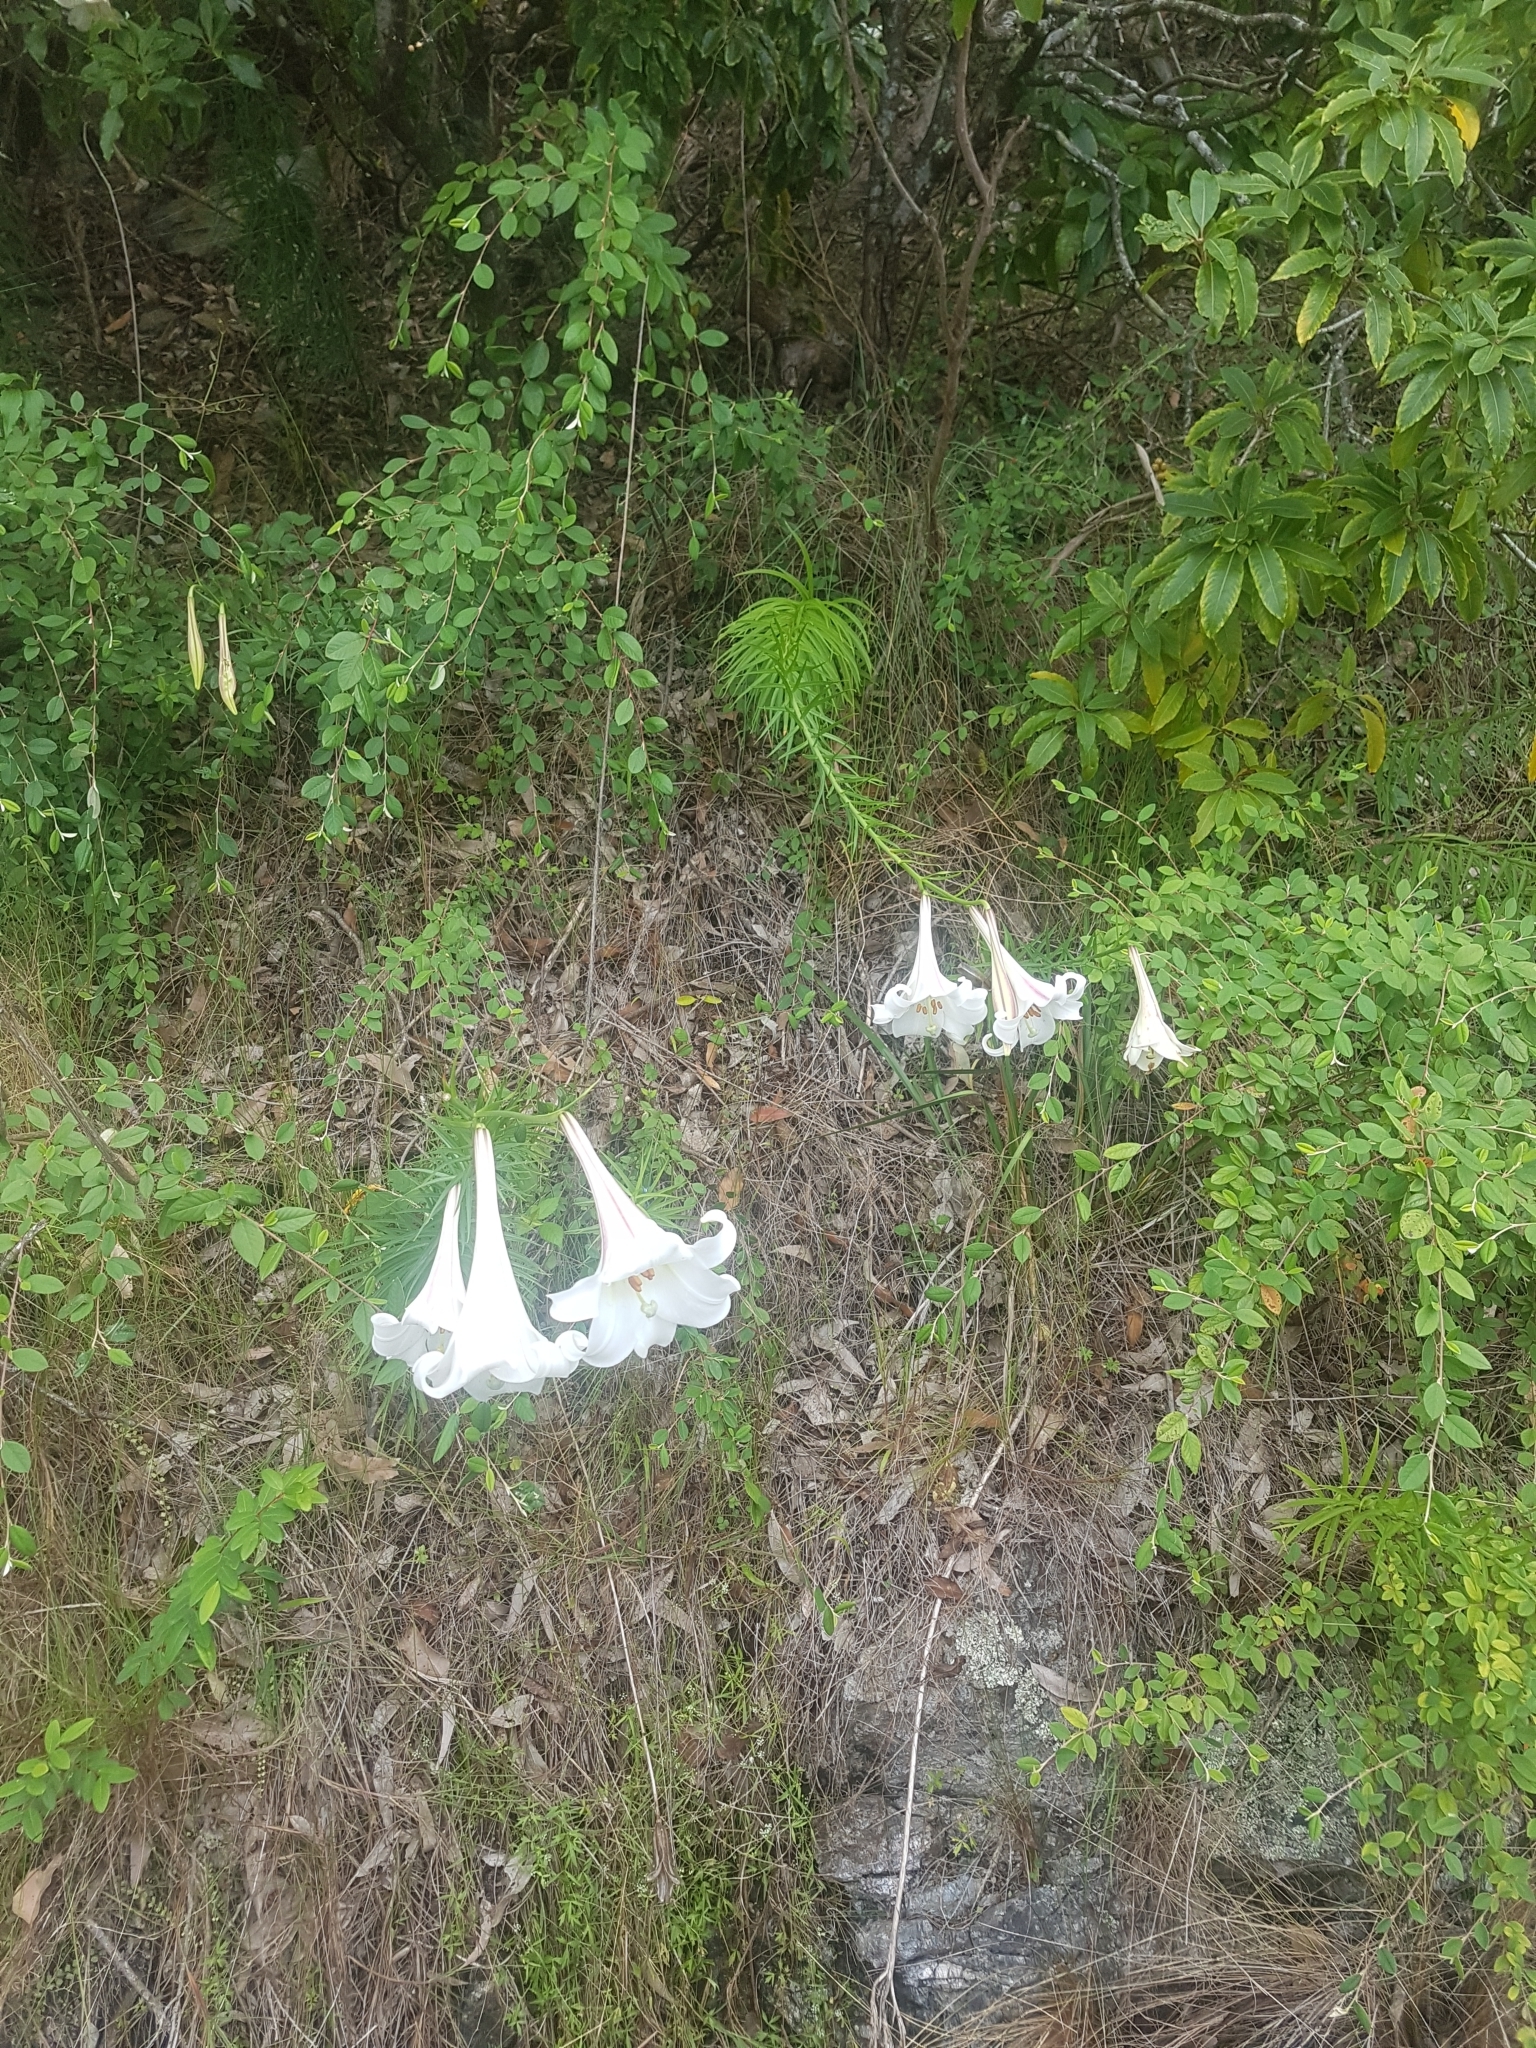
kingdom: Plantae
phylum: Tracheophyta
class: Liliopsida
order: Liliales
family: Liliaceae
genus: Lilium
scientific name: Lilium formosanum
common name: Formosa lily
